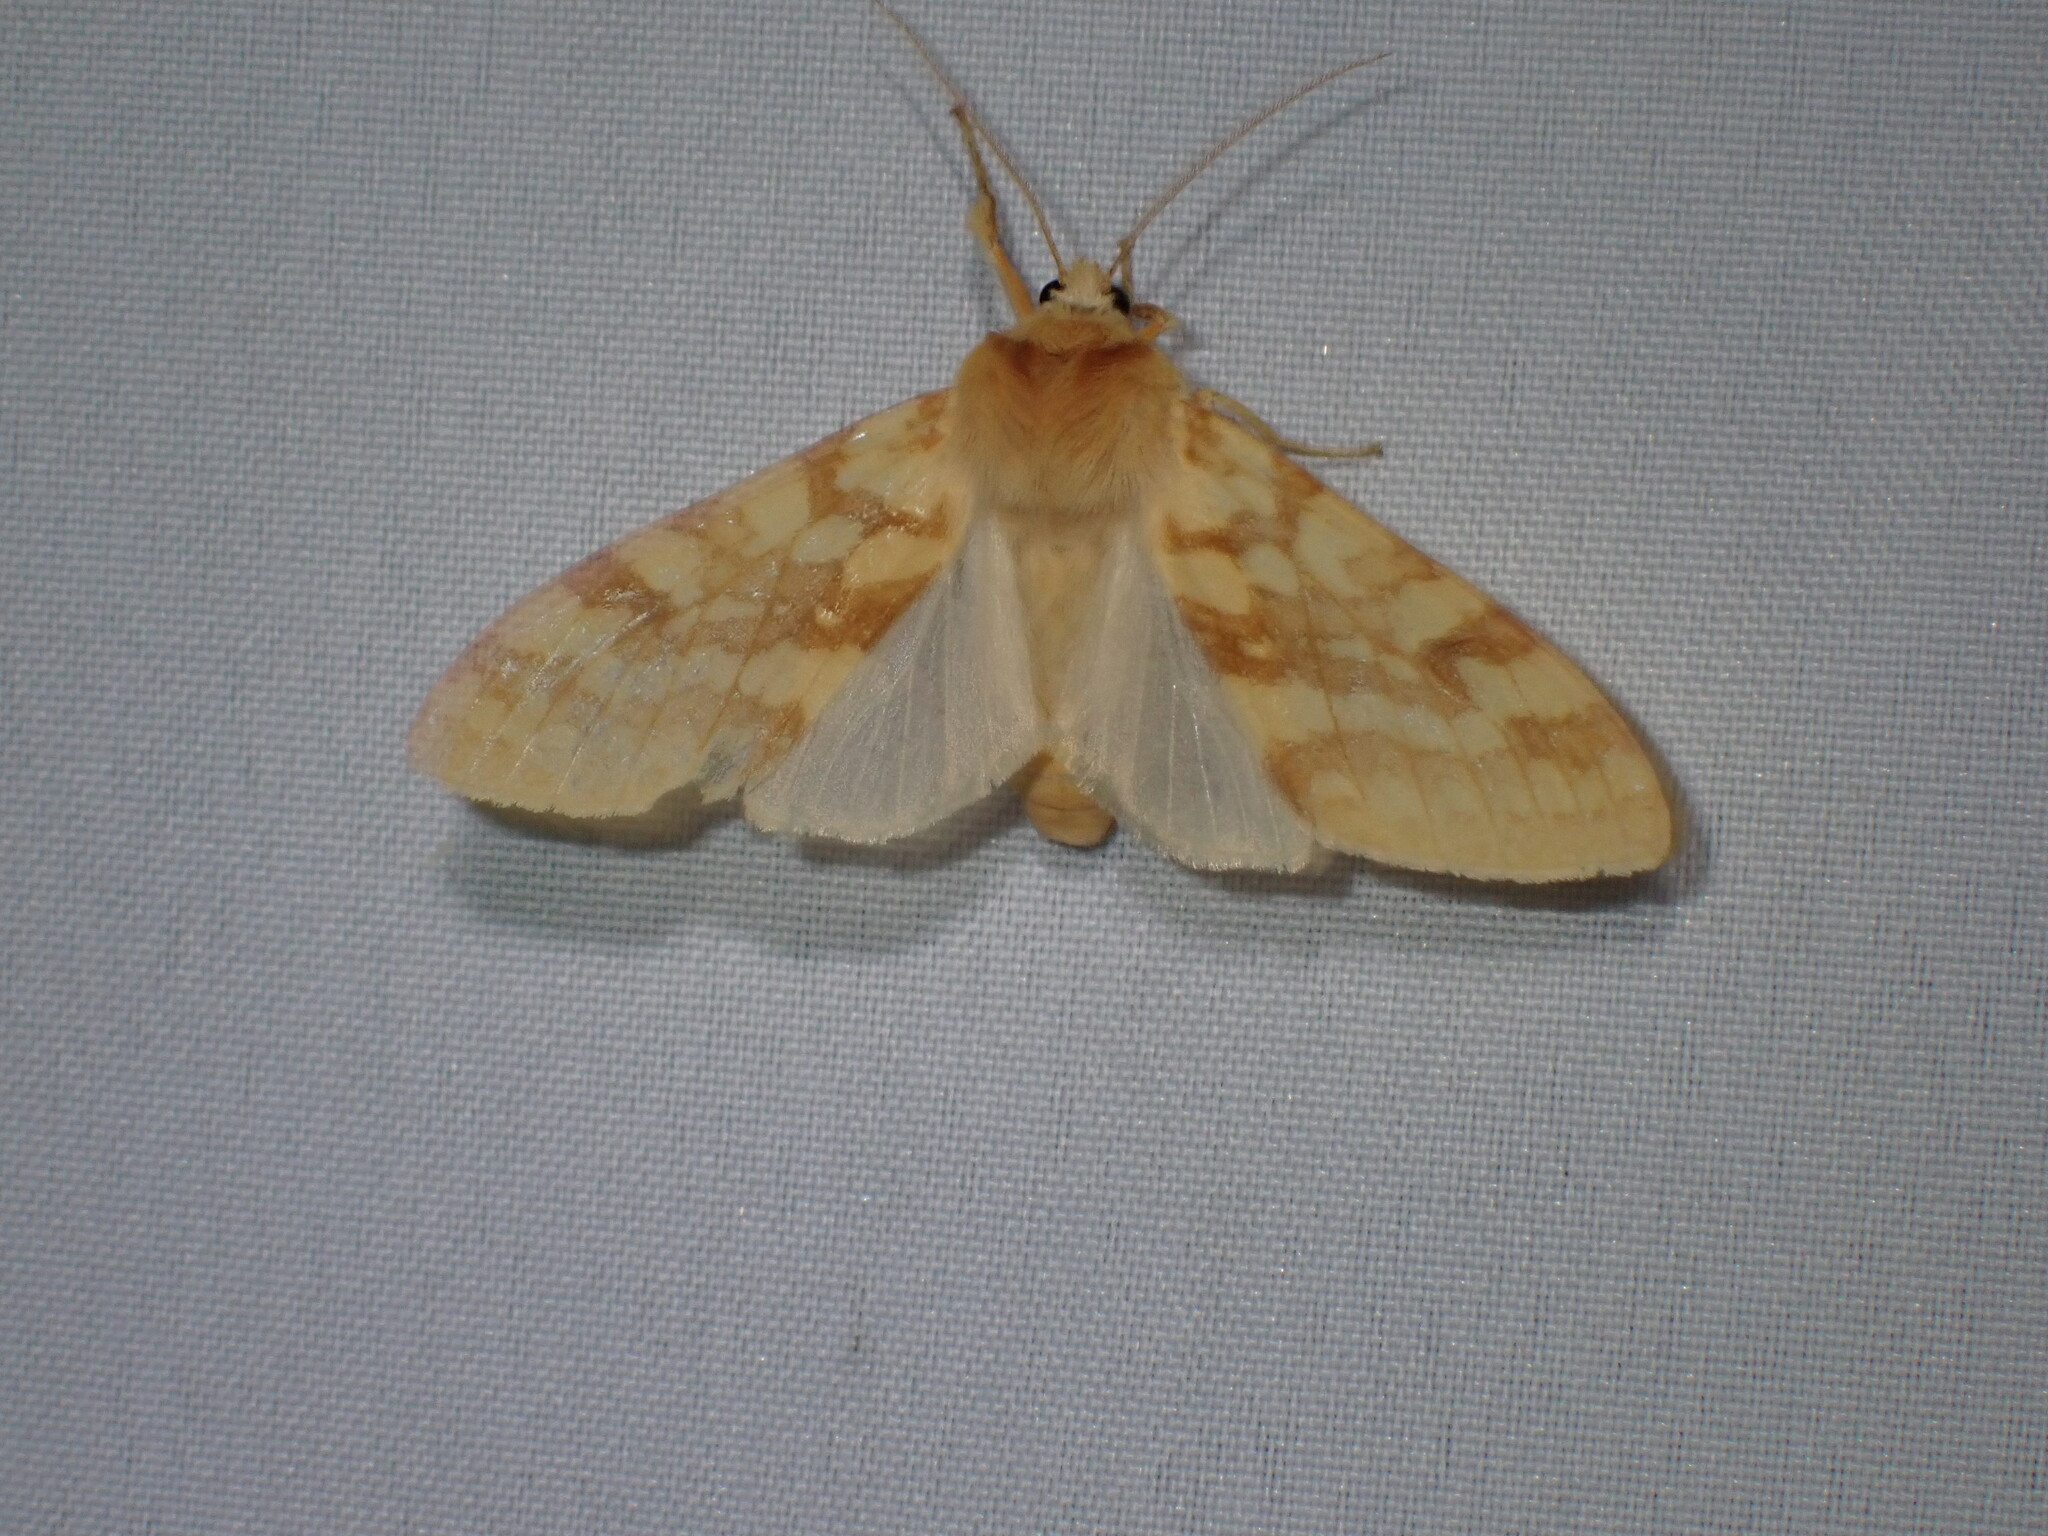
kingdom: Animalia
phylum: Arthropoda
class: Insecta
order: Lepidoptera
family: Erebidae
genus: Lophocampa
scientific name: Lophocampa maculata
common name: Spotted tussock moth
